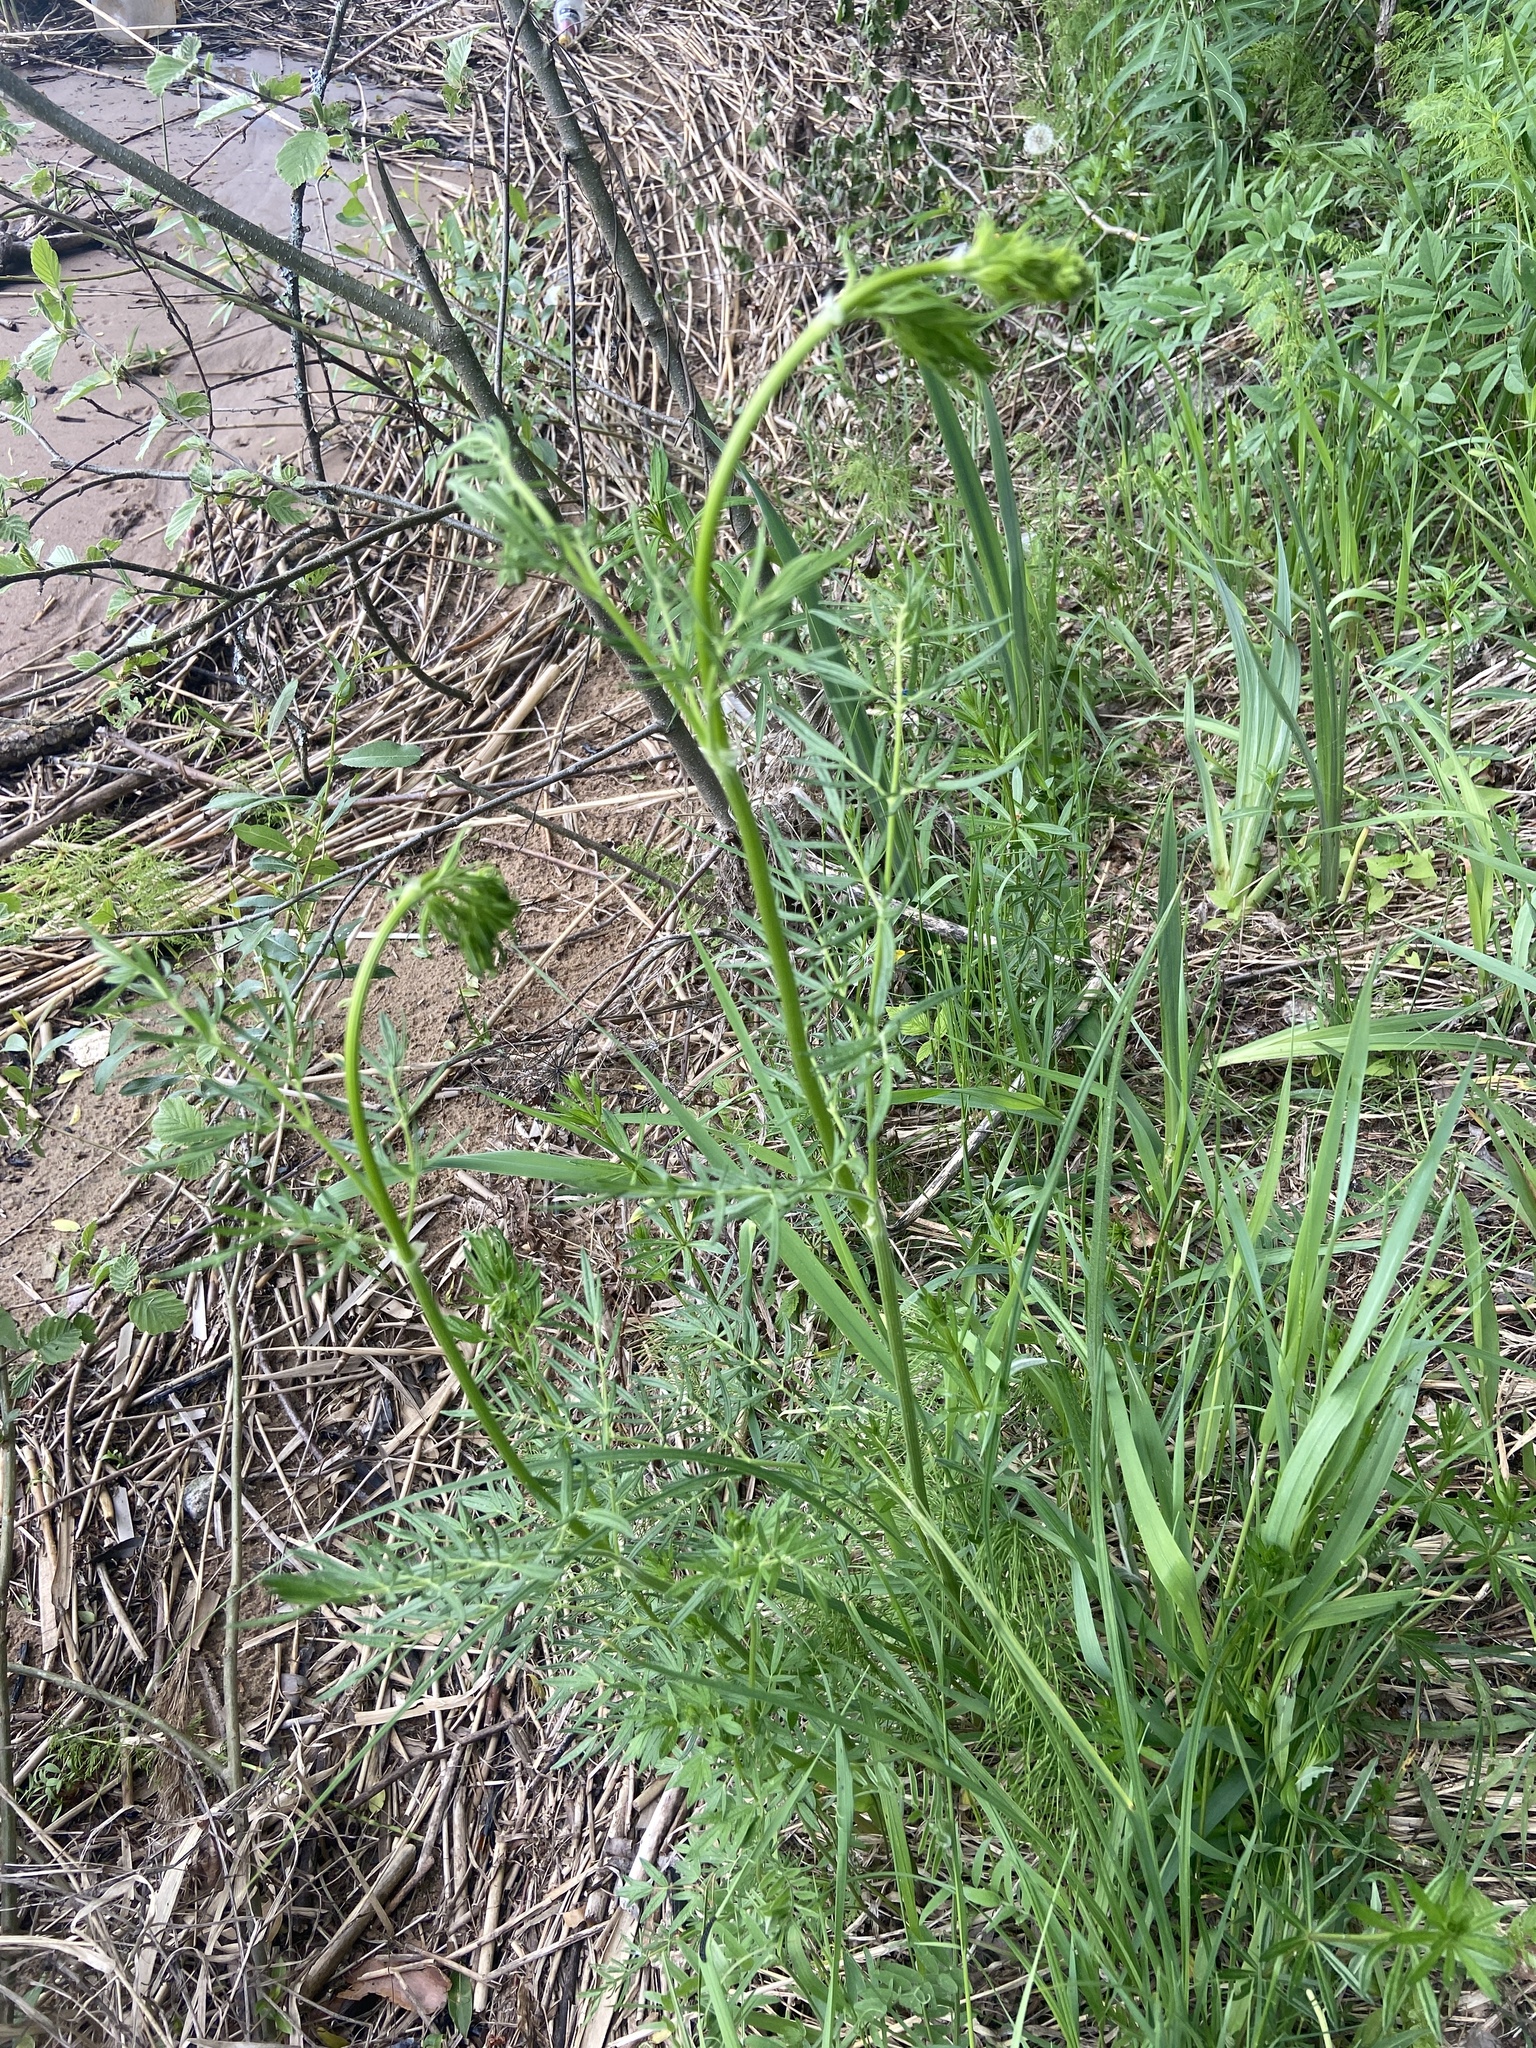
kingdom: Plantae
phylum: Tracheophyta
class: Magnoliopsida
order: Ranunculales
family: Ranunculaceae
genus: Thalictrum
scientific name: Thalictrum lucidum
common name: Shining meadow-rue
